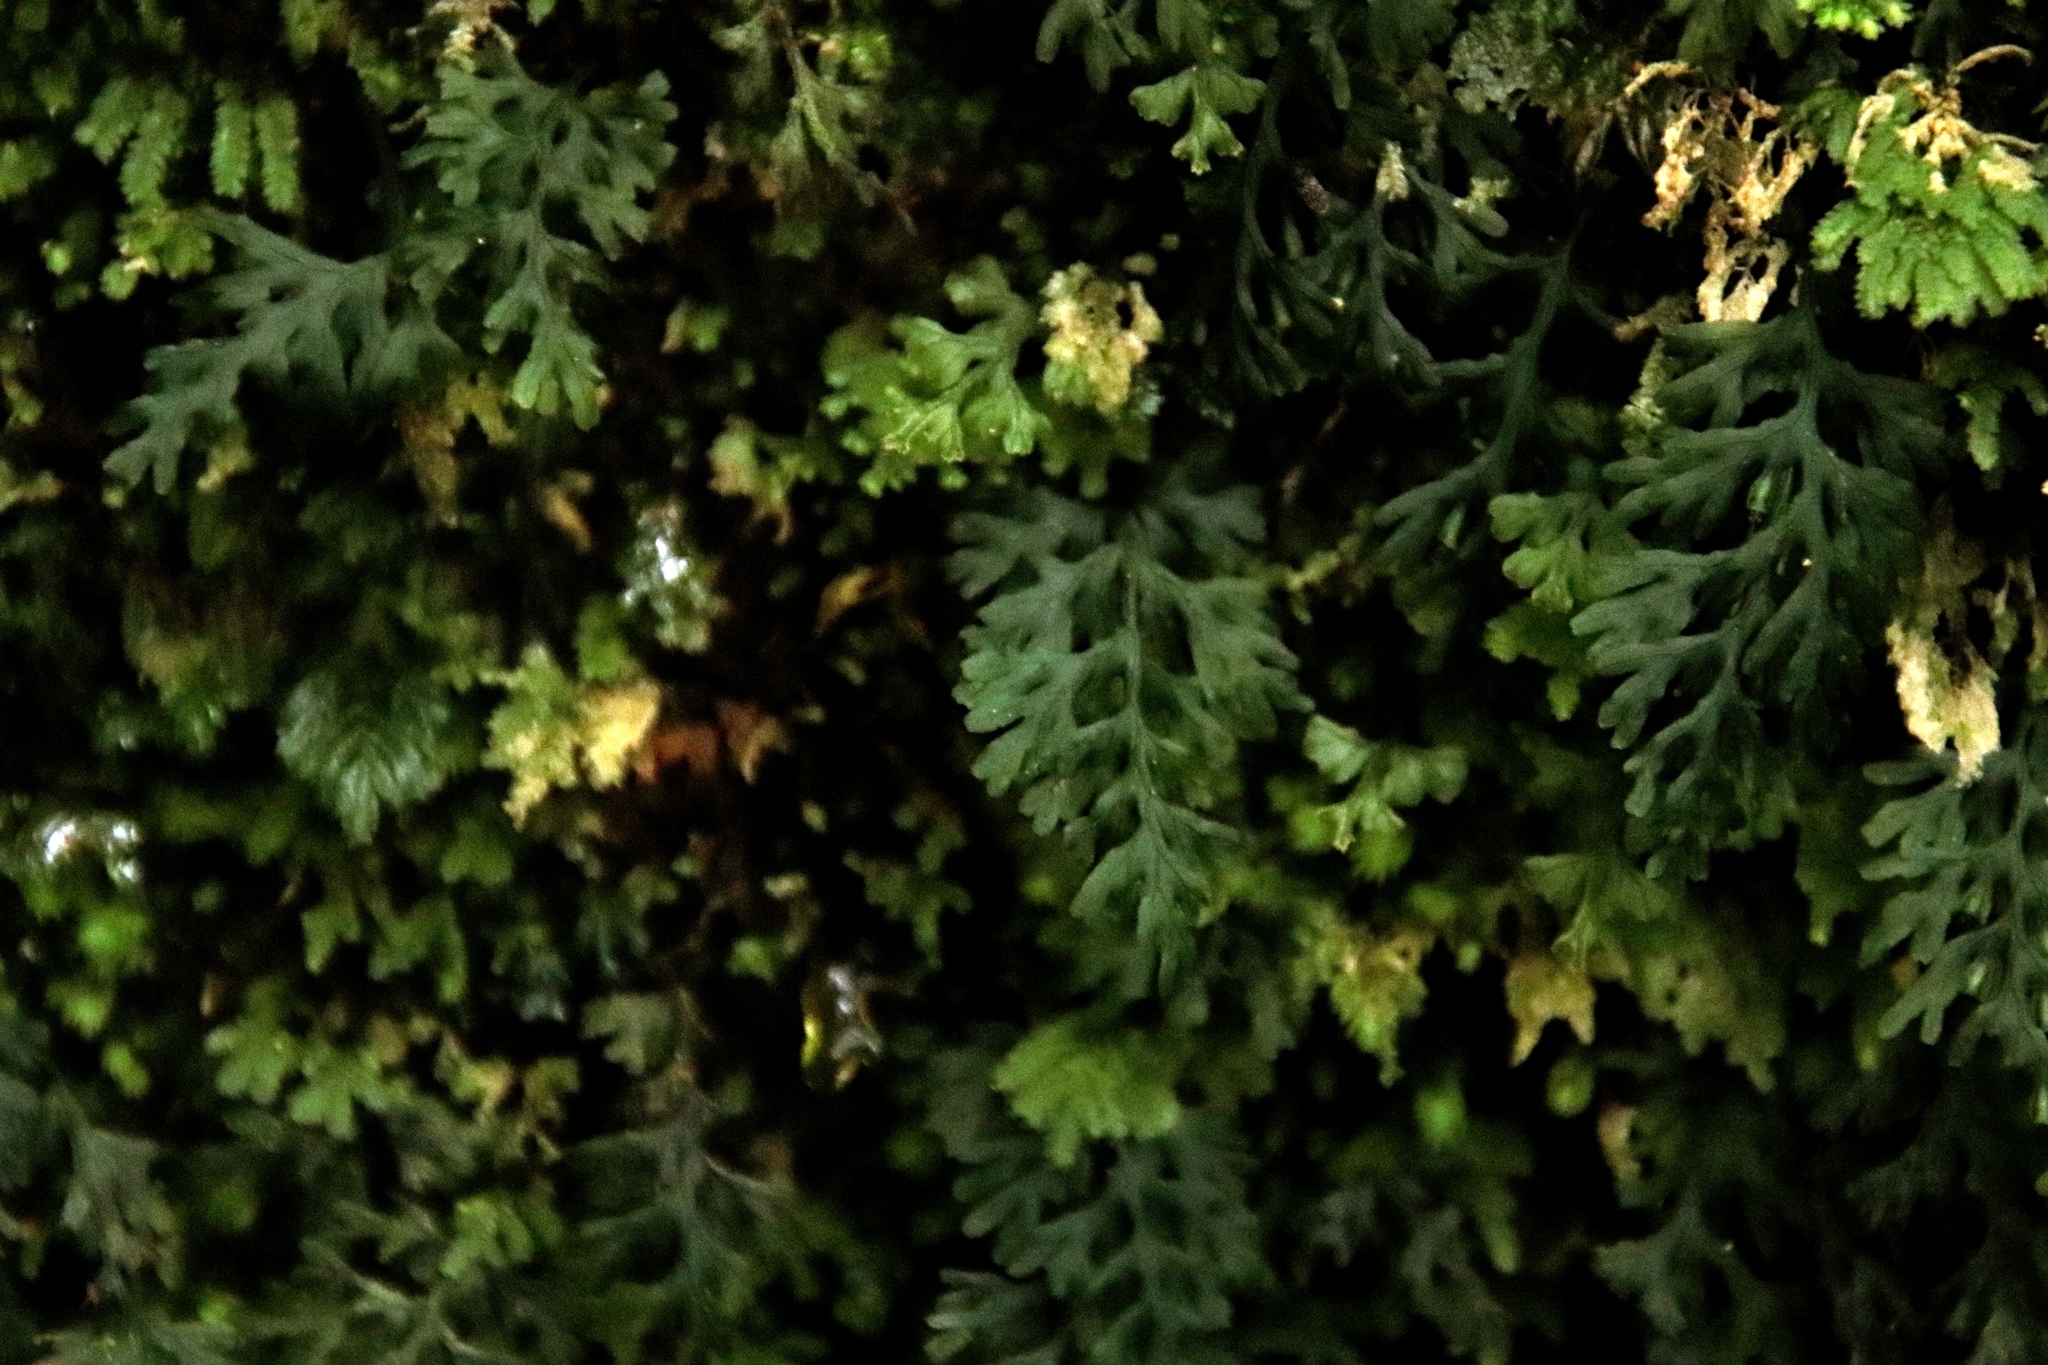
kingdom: Plantae
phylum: Tracheophyta
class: Polypodiopsida
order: Hymenophyllales
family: Hymenophyllaceae
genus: Crepidomanes
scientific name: Crepidomanes melanotrichum
